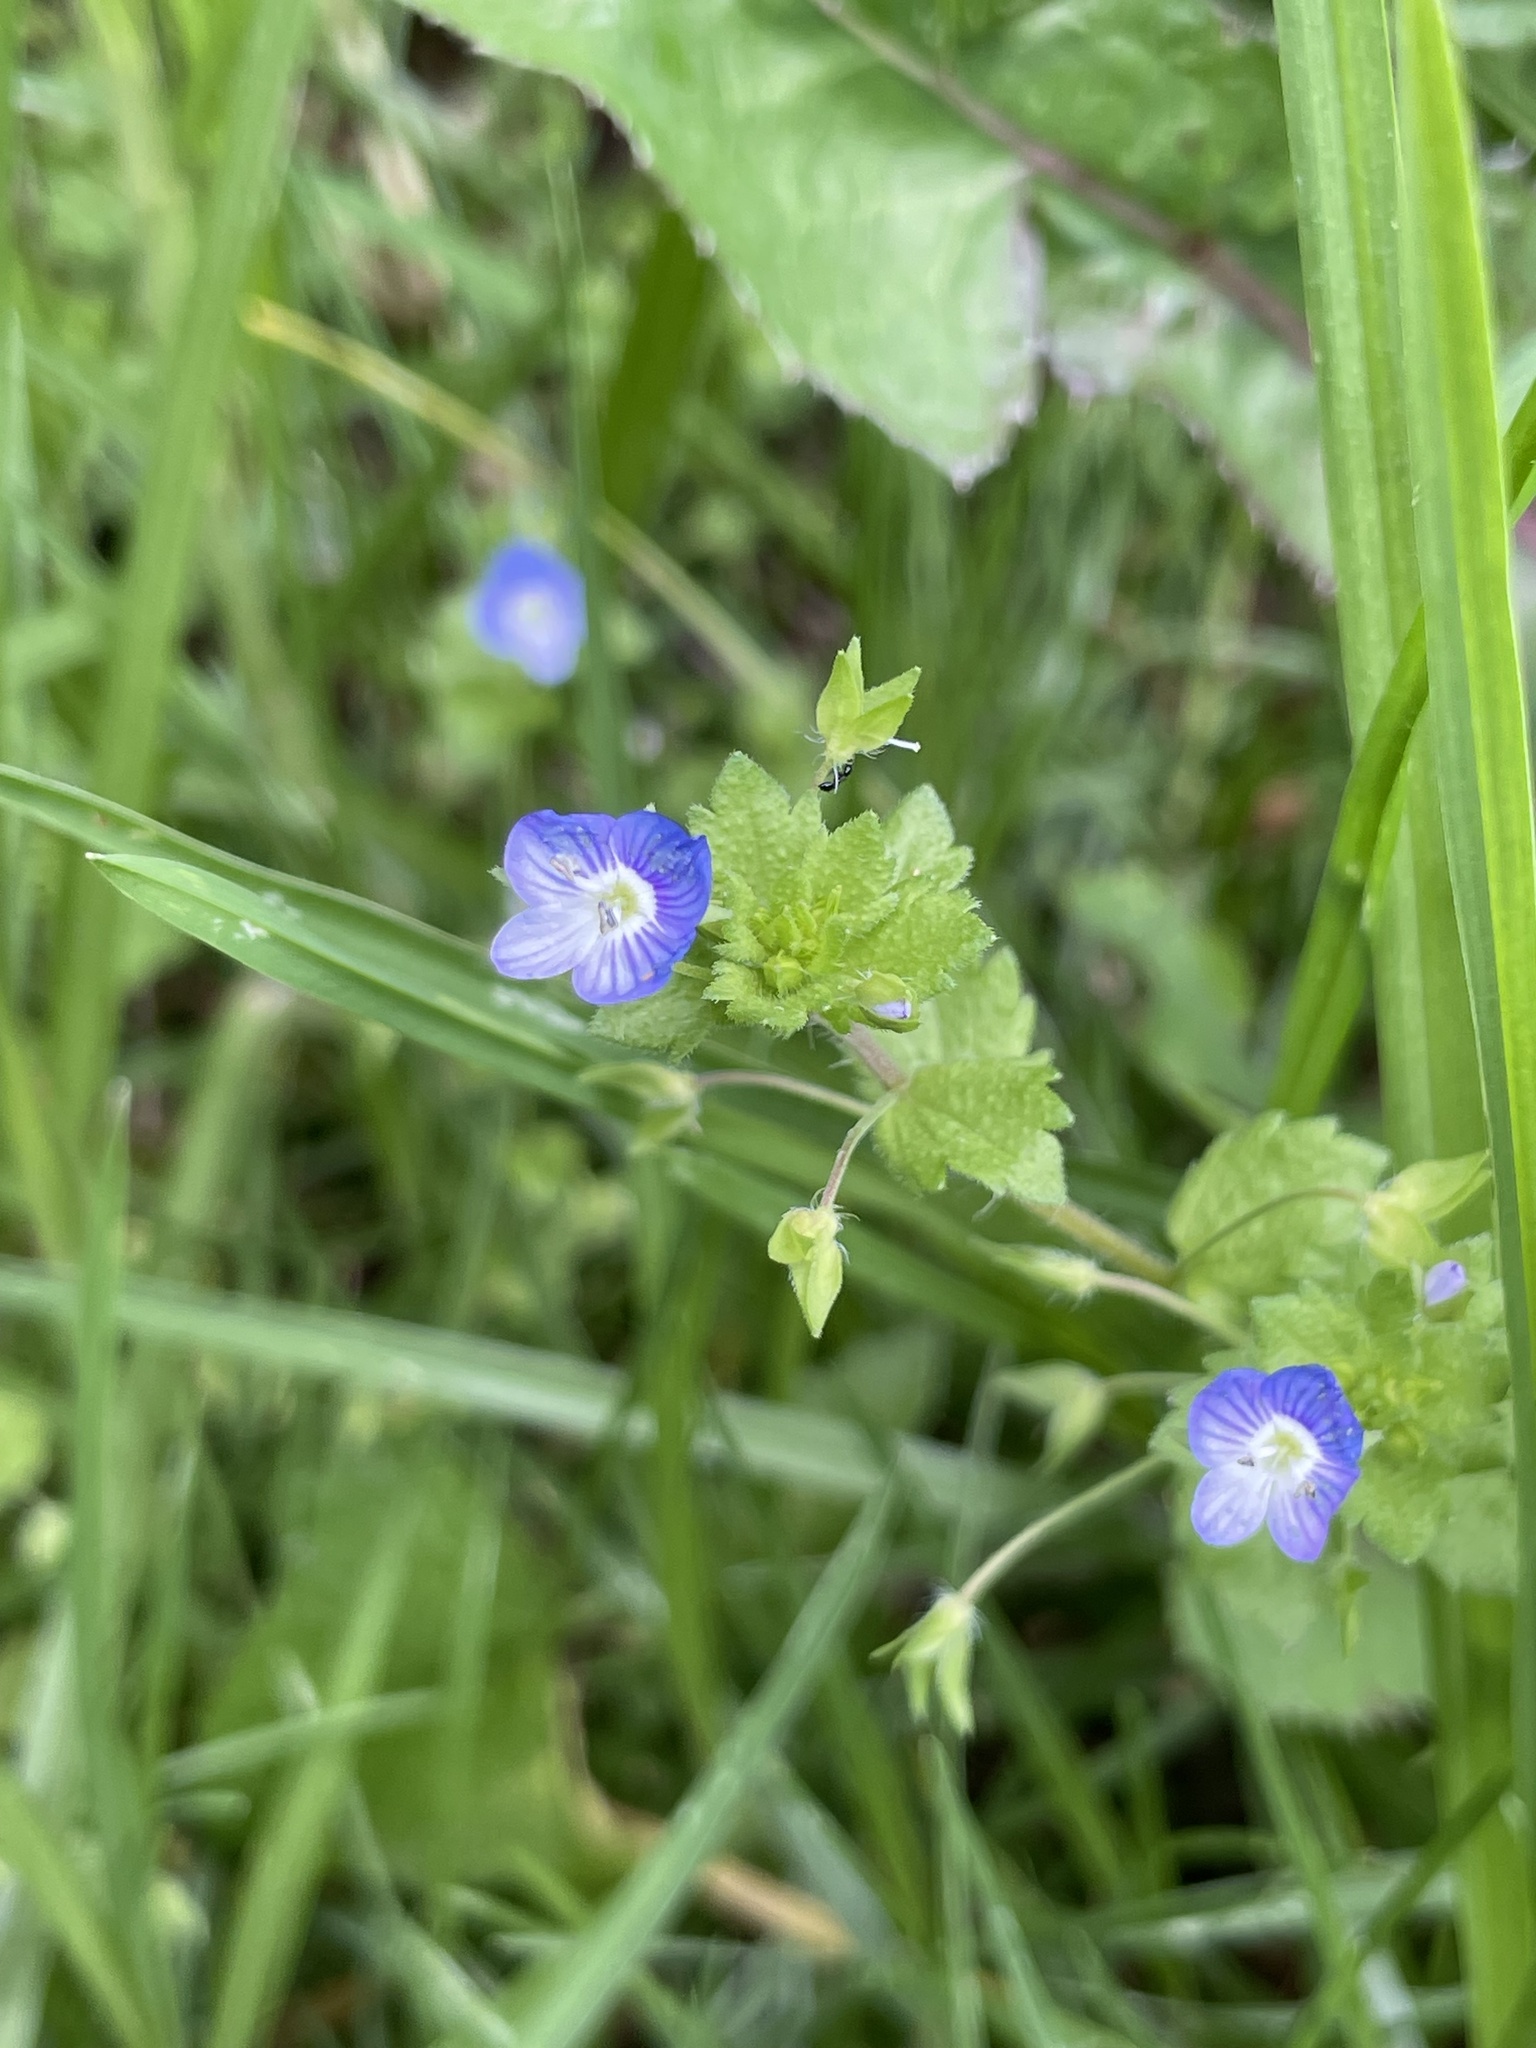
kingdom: Plantae
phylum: Tracheophyta
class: Magnoliopsida
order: Lamiales
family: Plantaginaceae
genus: Veronica
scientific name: Veronica persica
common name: Common field-speedwell
